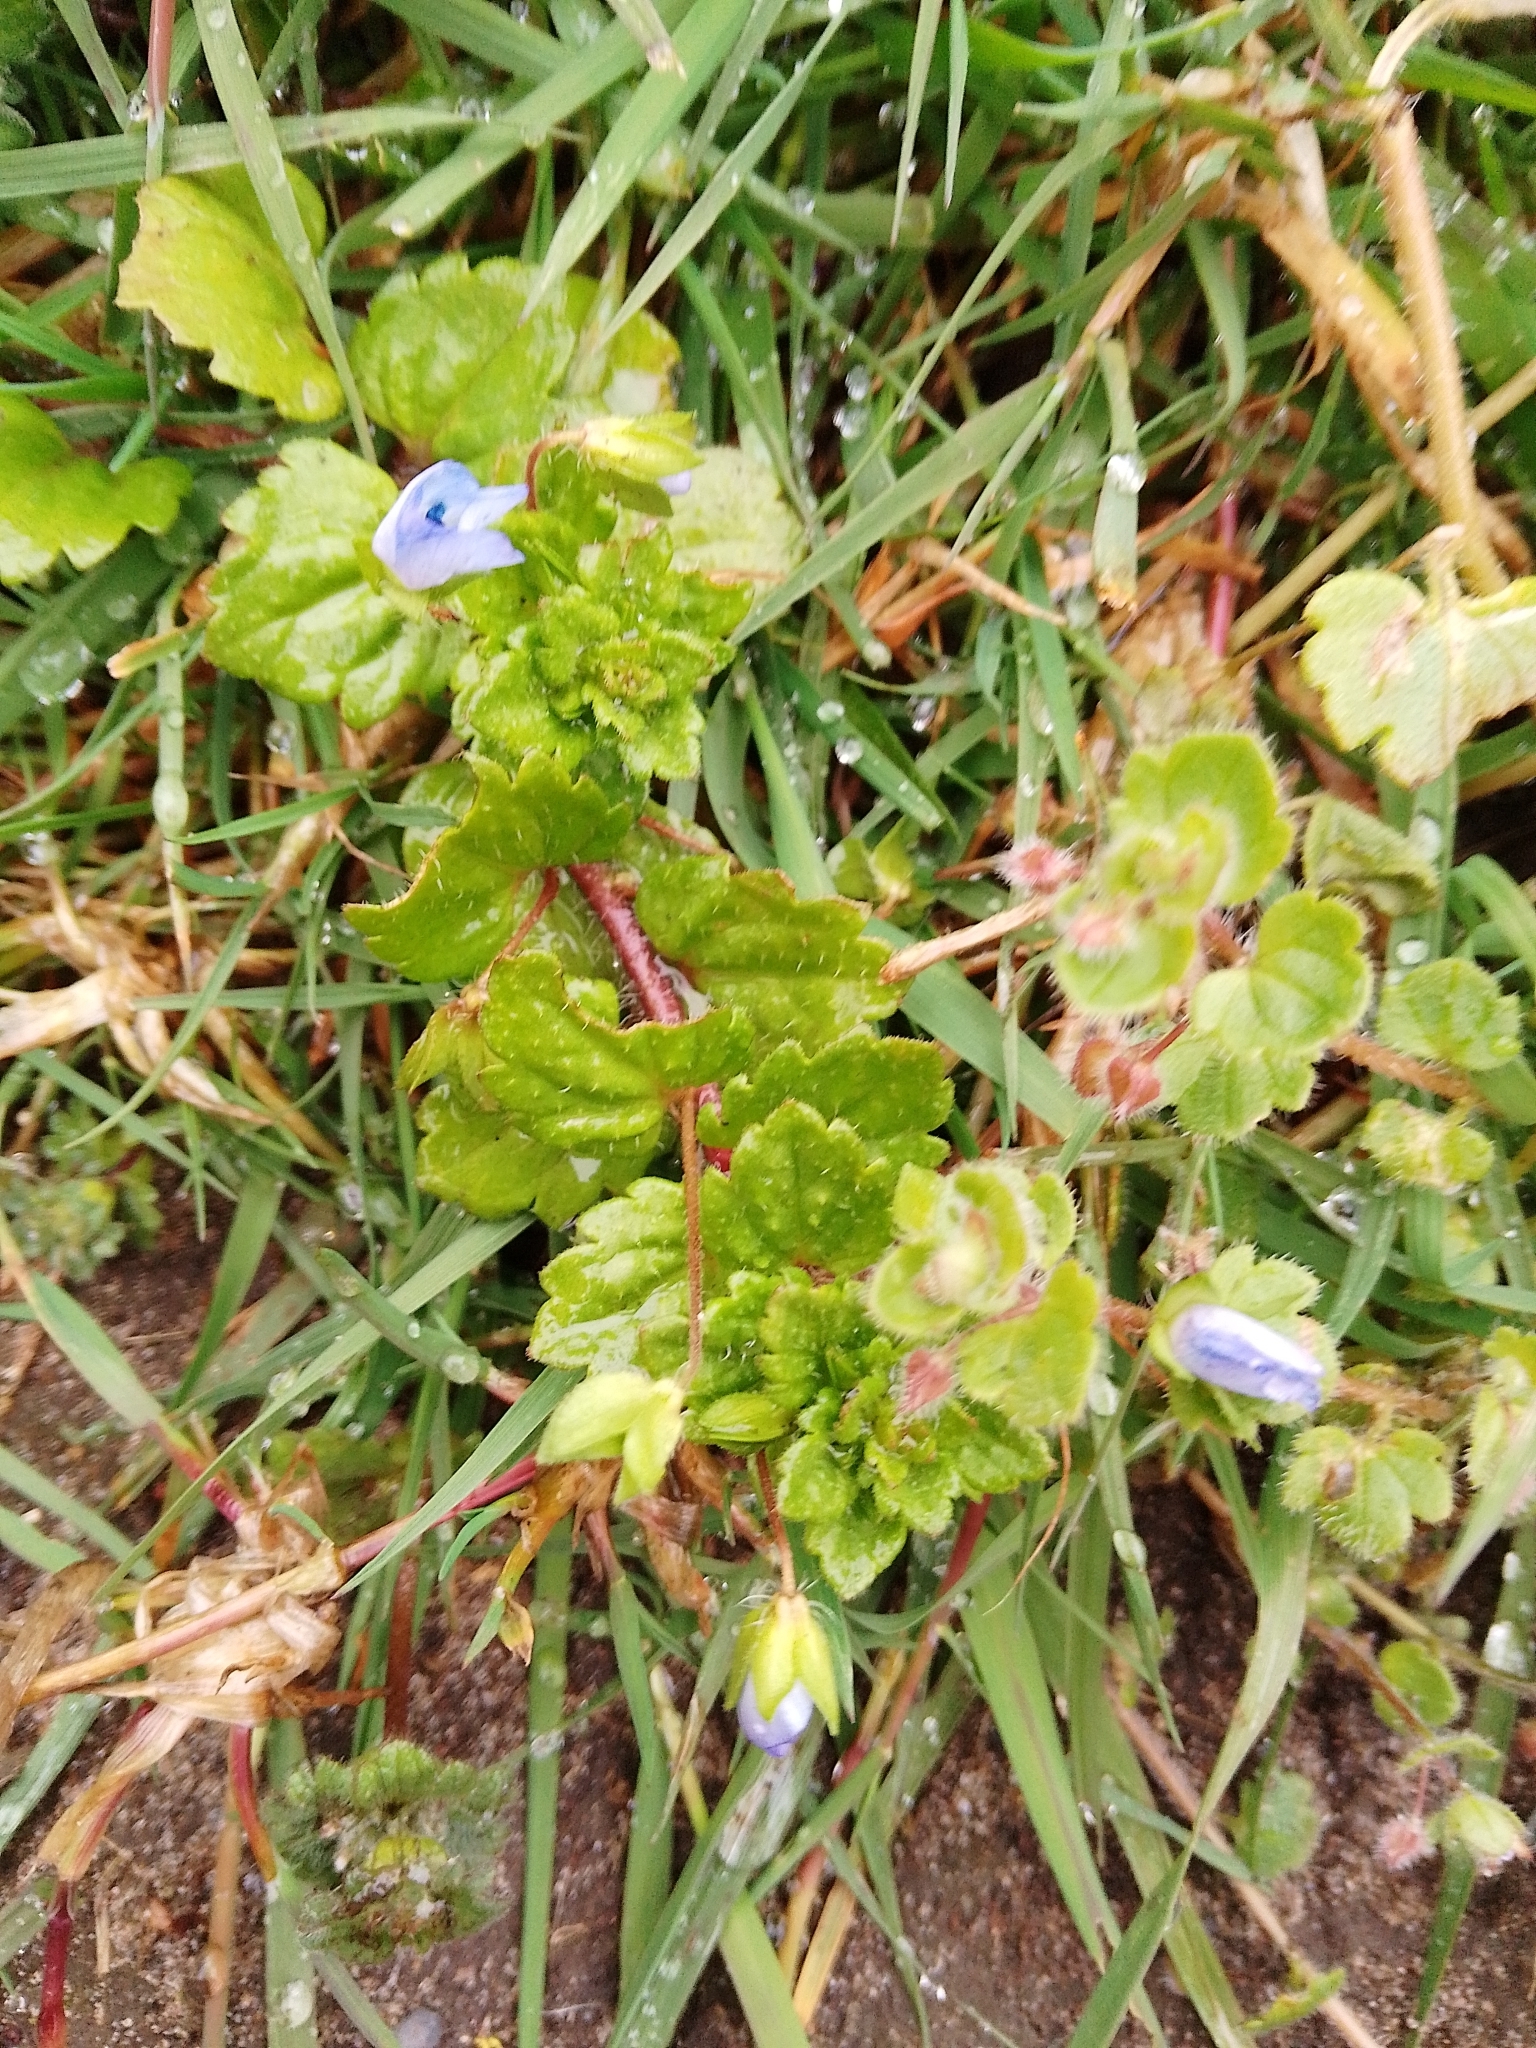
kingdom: Plantae
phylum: Tracheophyta
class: Magnoliopsida
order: Lamiales
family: Plantaginaceae
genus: Veronica
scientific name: Veronica persica
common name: Common field-speedwell
